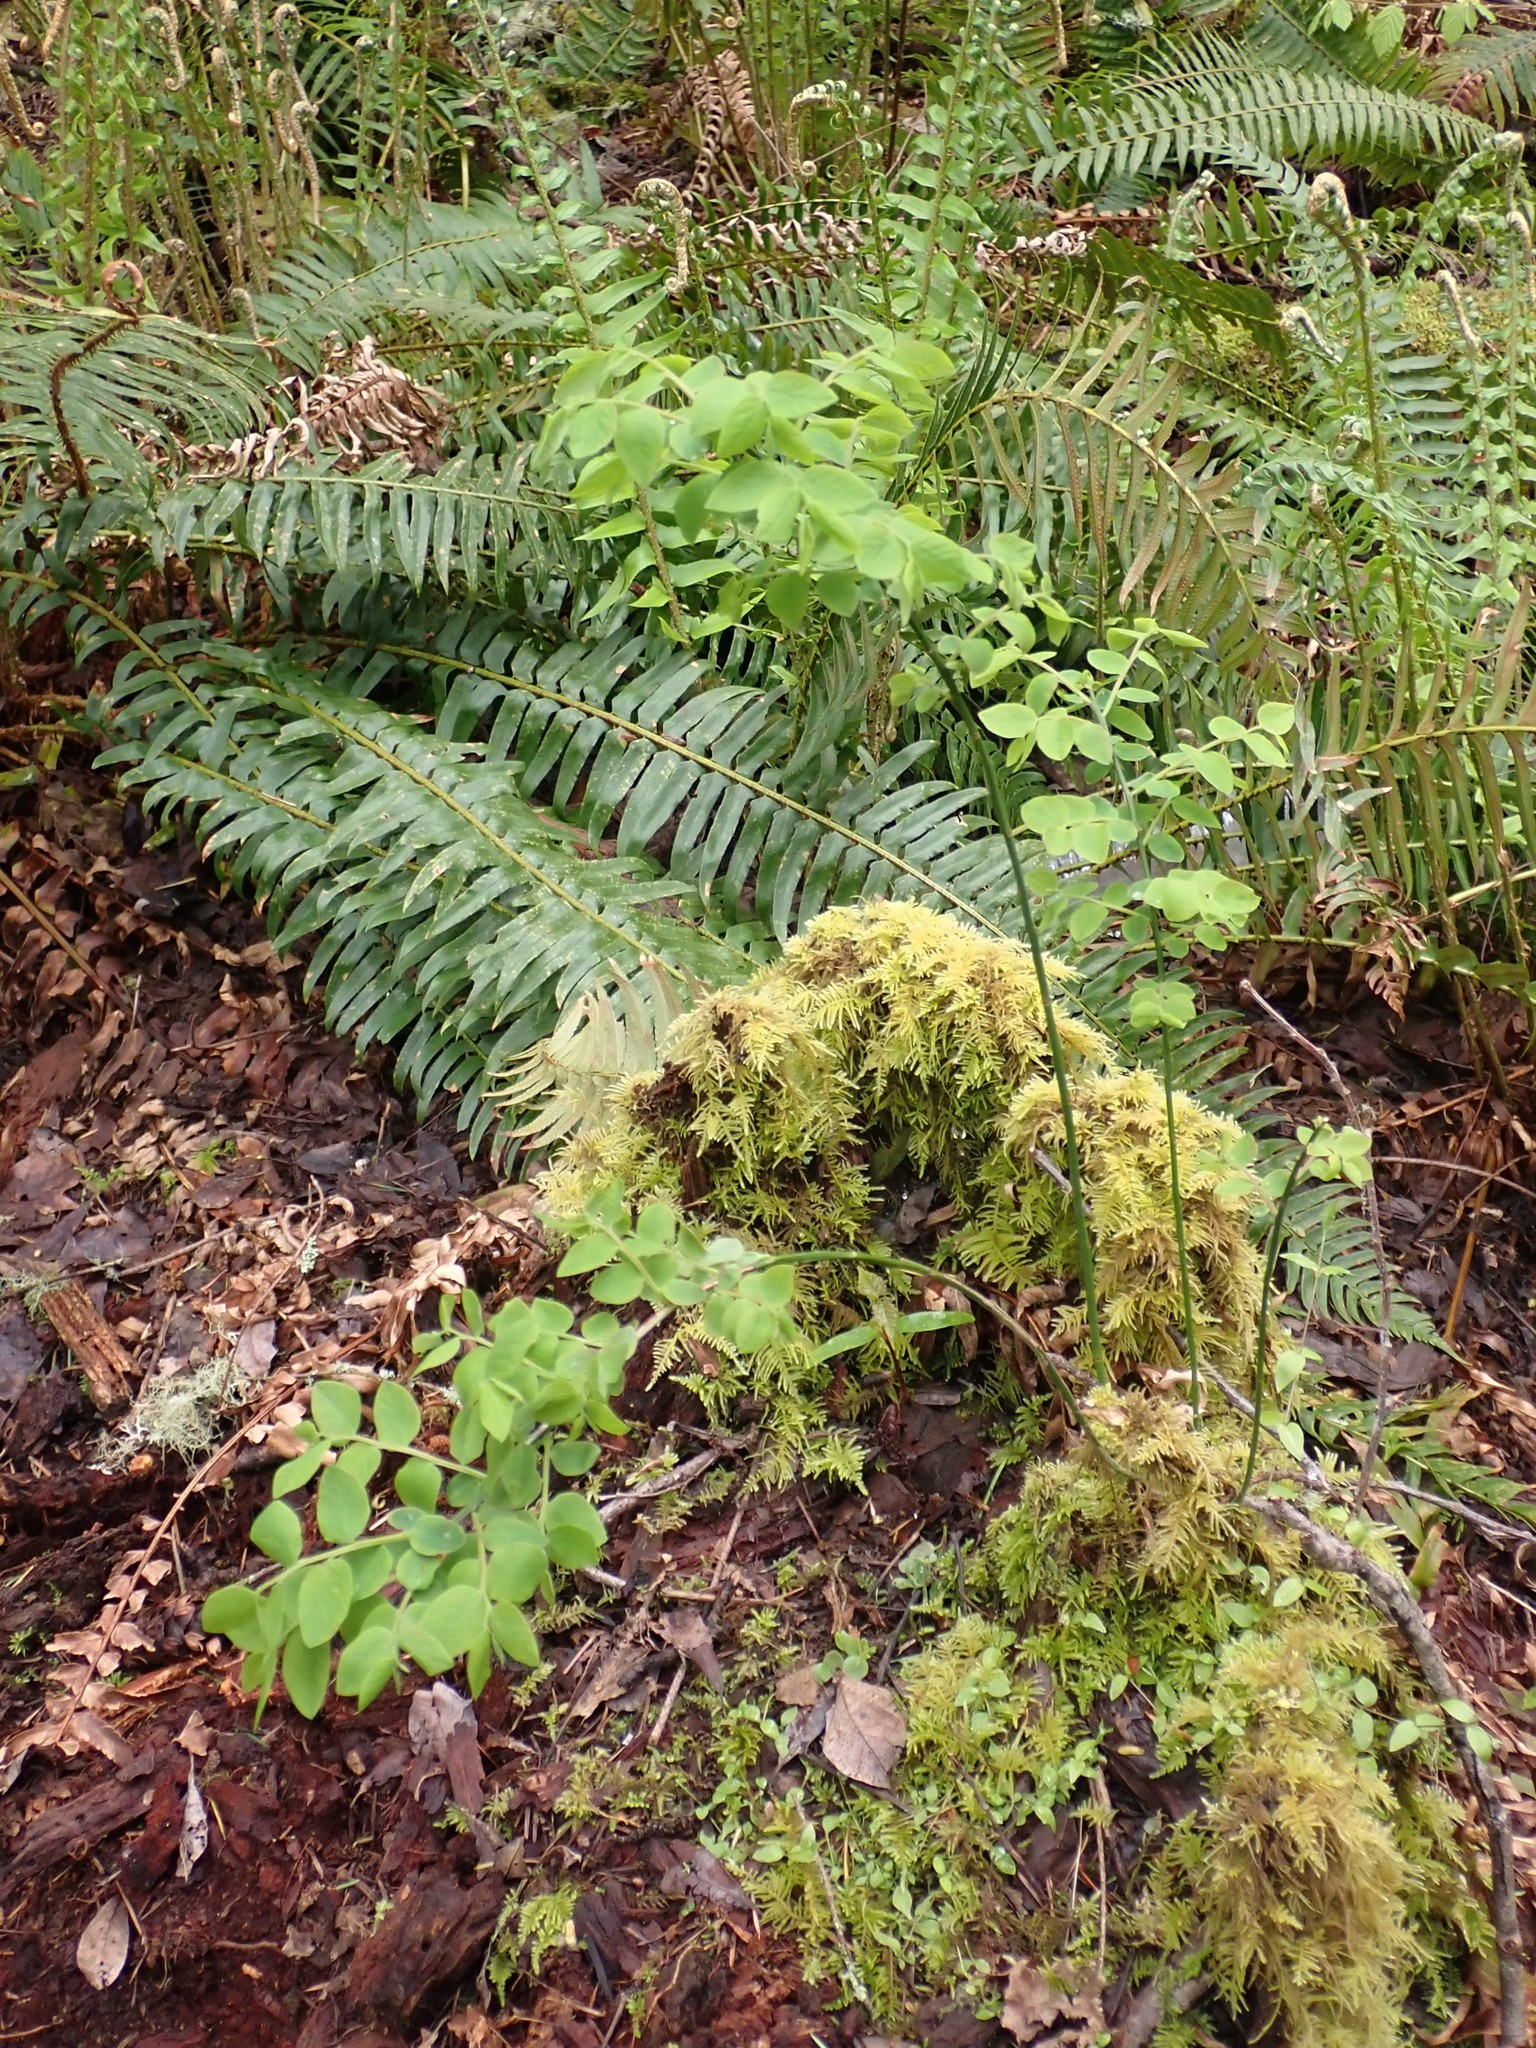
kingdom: Plantae
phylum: Tracheophyta
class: Magnoliopsida
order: Ericales
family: Ericaceae
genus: Vaccinium
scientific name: Vaccinium parvifolium
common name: Red-huckleberry
